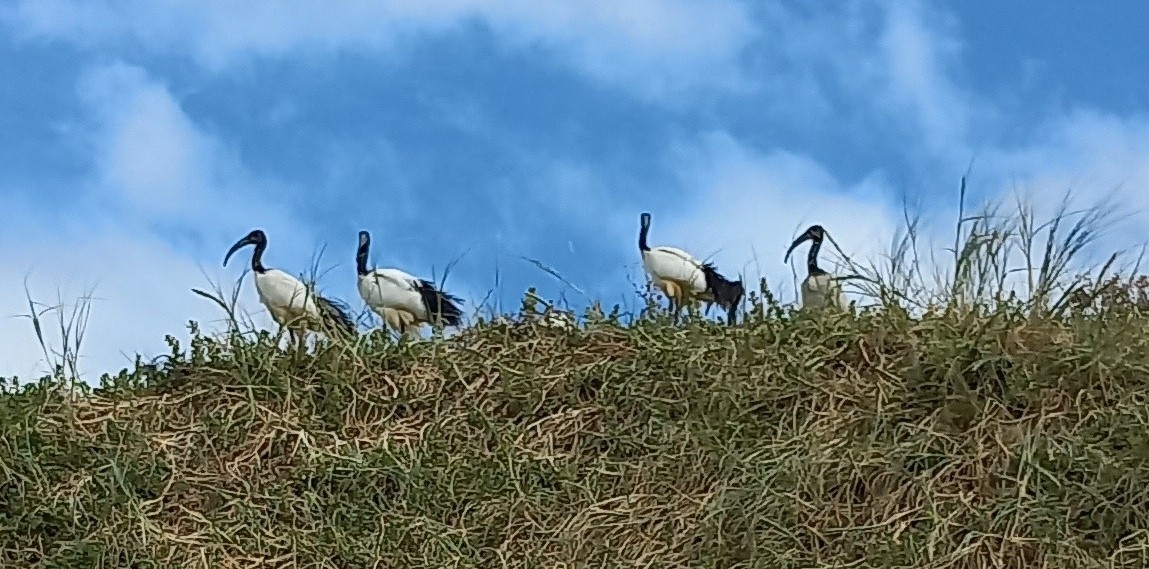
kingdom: Animalia
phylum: Chordata
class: Aves
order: Pelecaniformes
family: Threskiornithidae
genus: Threskiornis
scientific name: Threskiornis aethiopicus
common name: Sacred ibis
